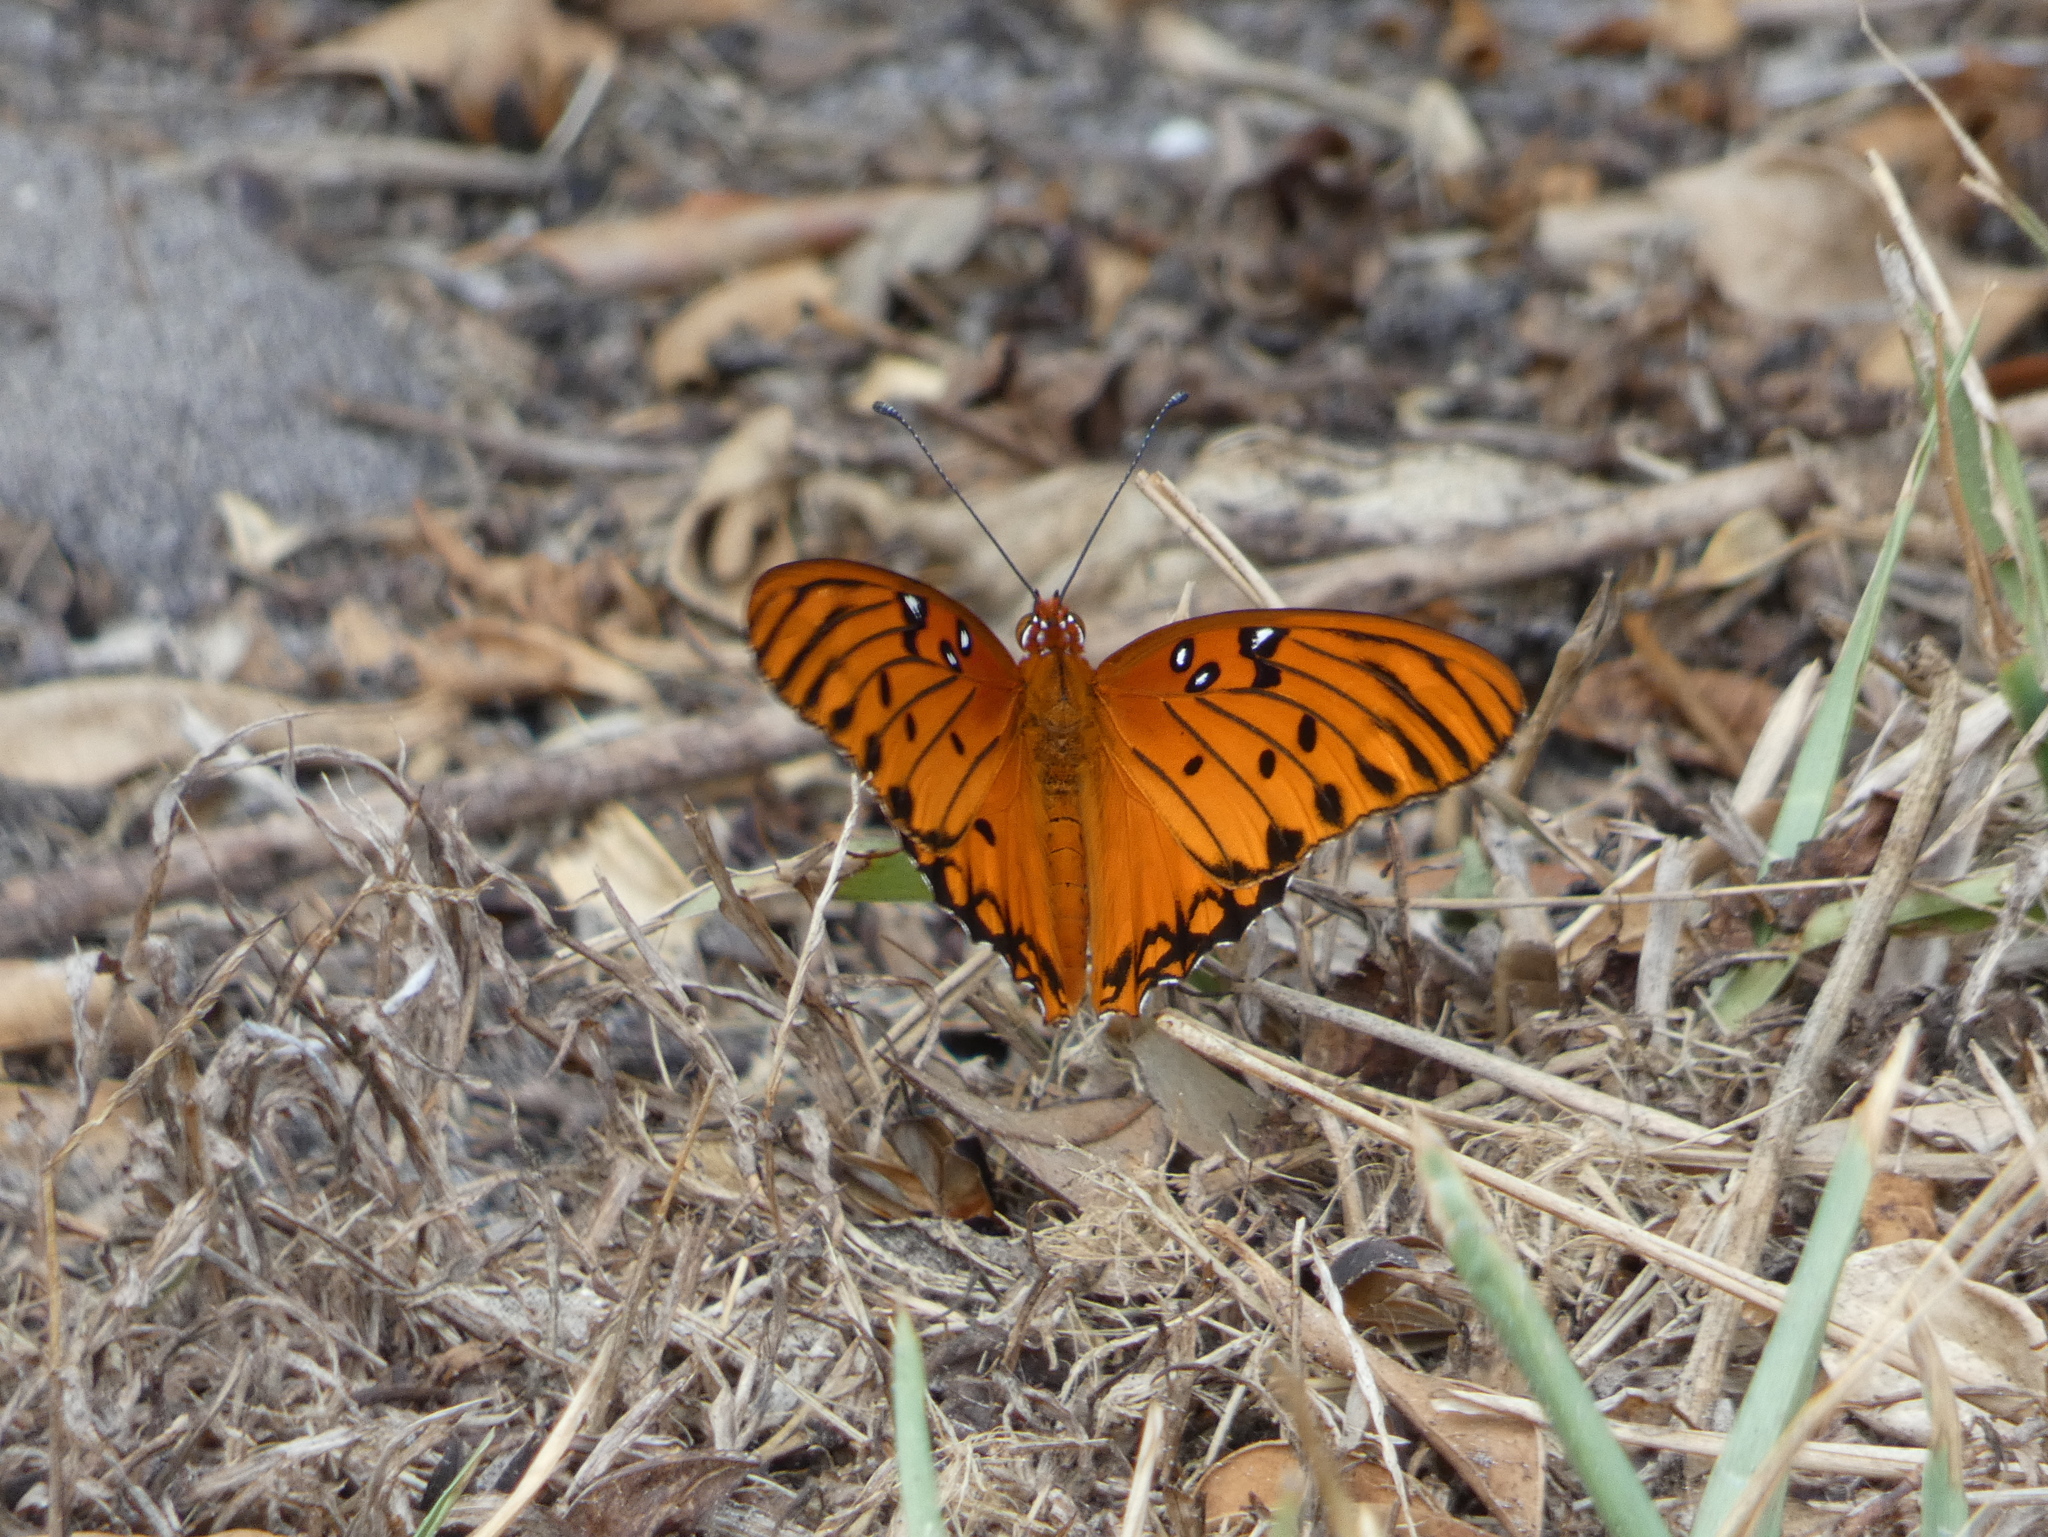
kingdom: Animalia
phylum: Arthropoda
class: Insecta
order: Lepidoptera
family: Nymphalidae
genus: Dione
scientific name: Dione vanillae
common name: Gulf fritillary
